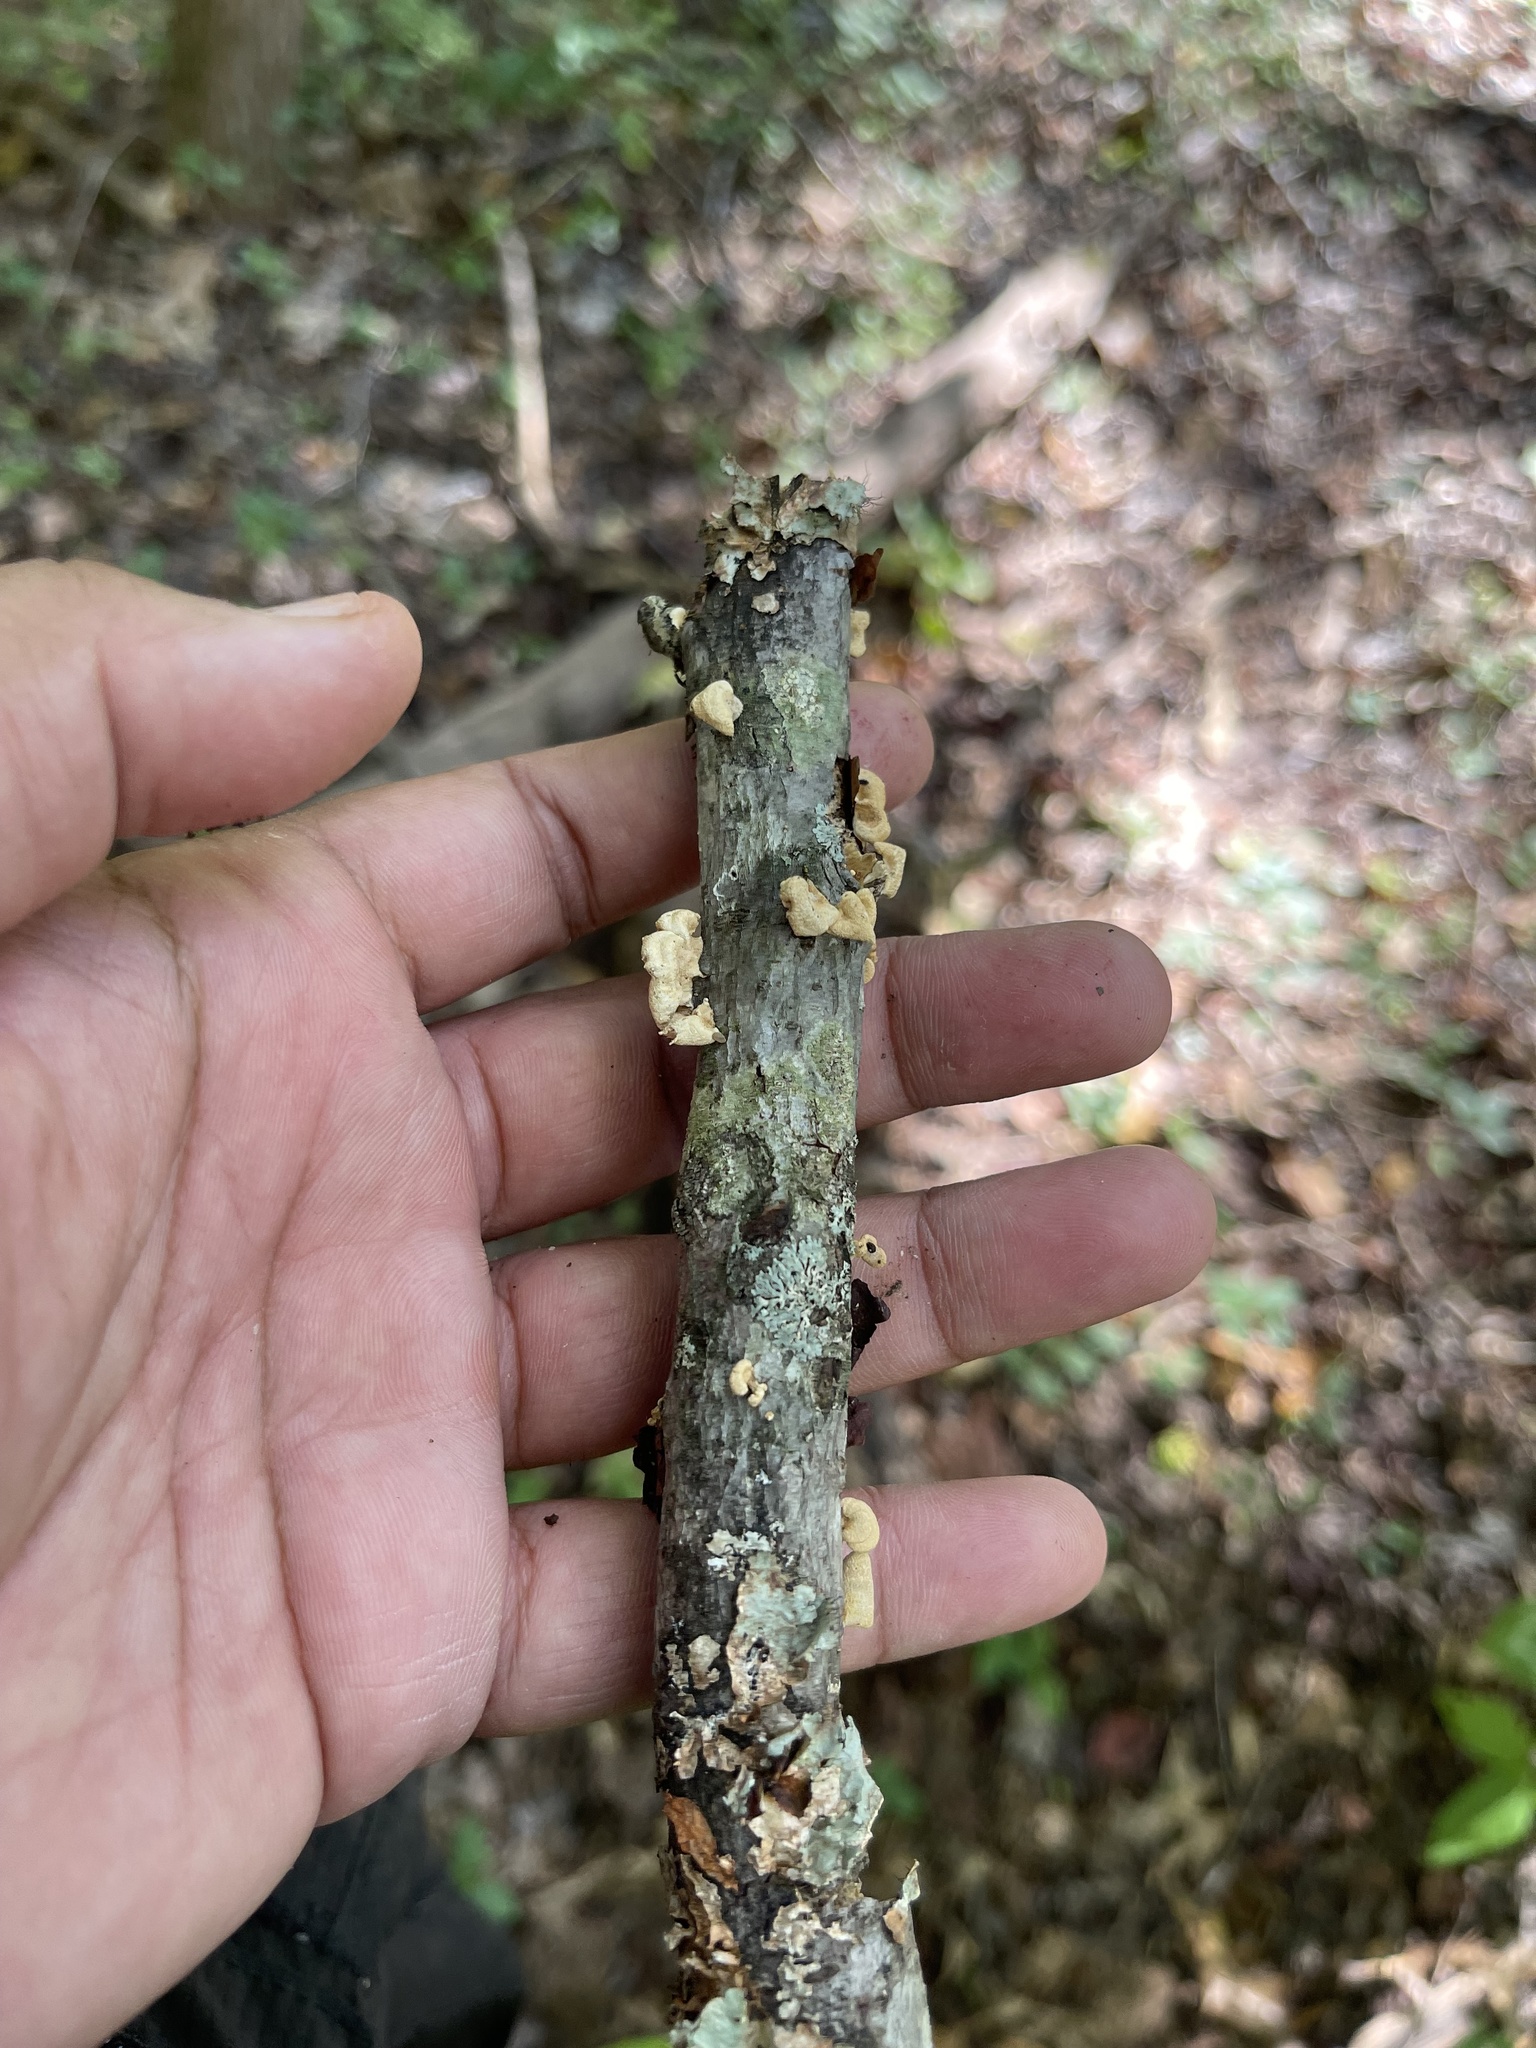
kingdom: Fungi
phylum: Basidiomycota
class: Agaricomycetes
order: Agaricales
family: Mycenaceae
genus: Panellus
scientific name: Panellus stipticus
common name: Bitter oysterling
